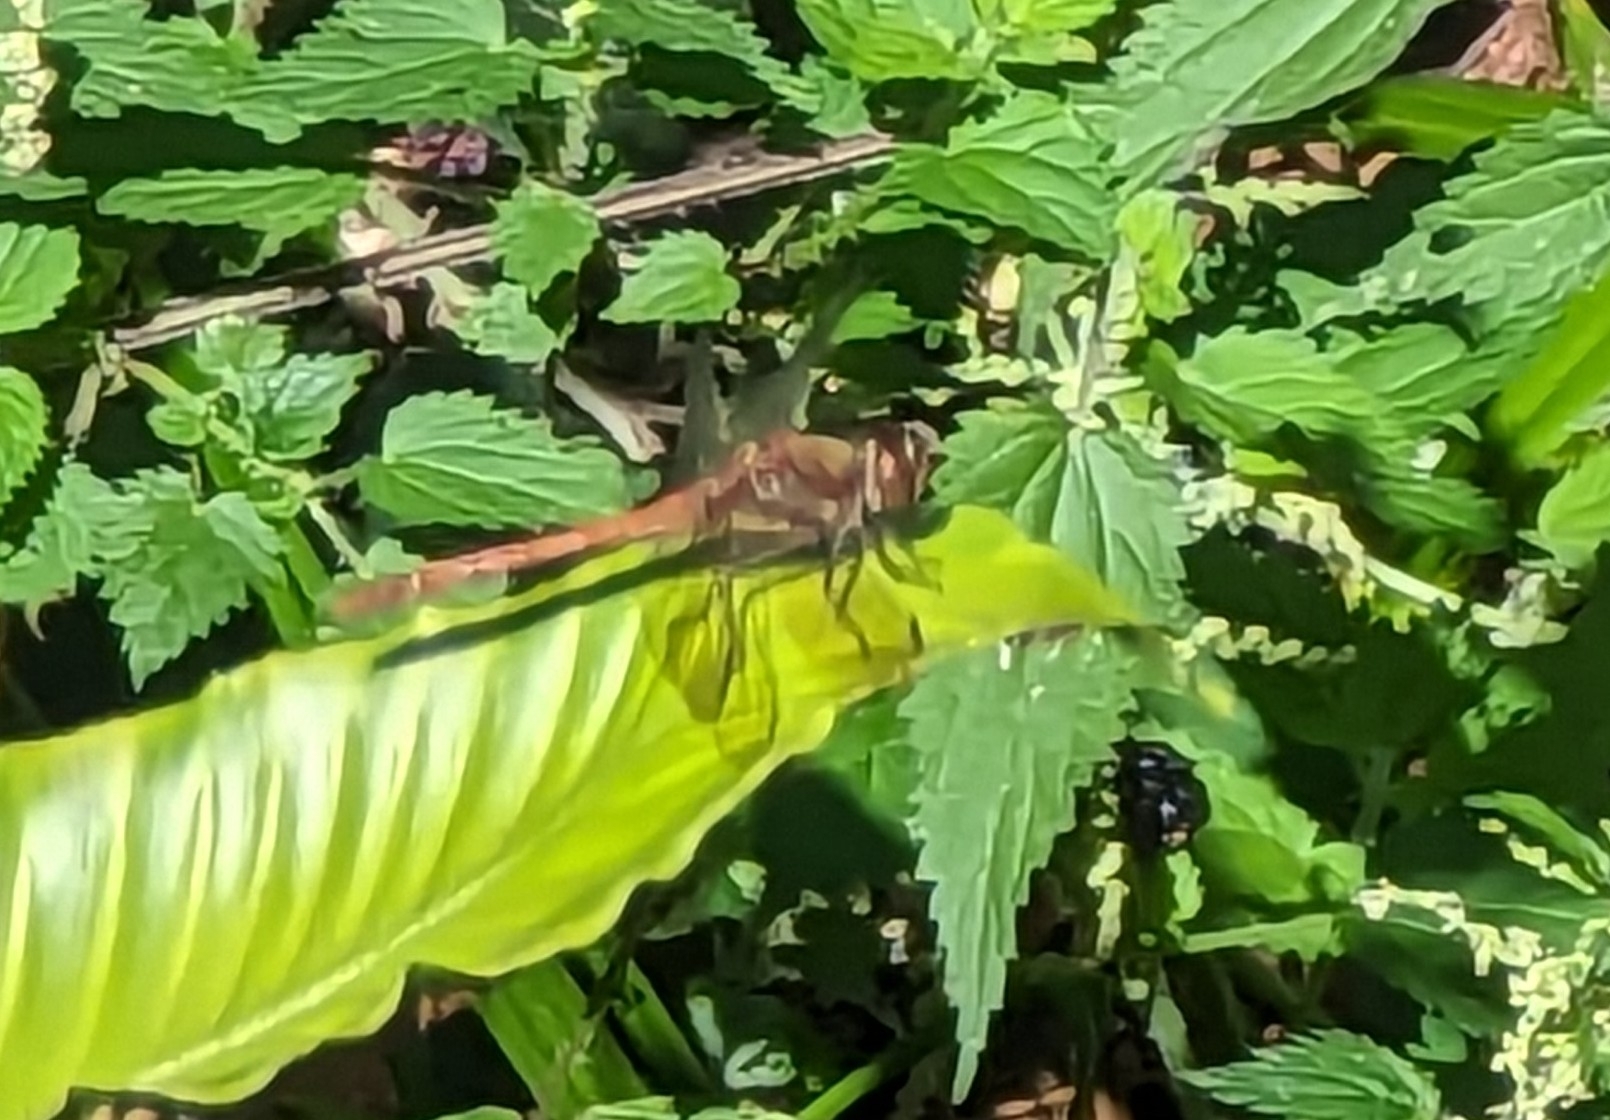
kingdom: Animalia
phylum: Arthropoda
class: Insecta
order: Odonata
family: Libellulidae
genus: Sympetrum
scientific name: Sympetrum striolatum
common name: Common darter
